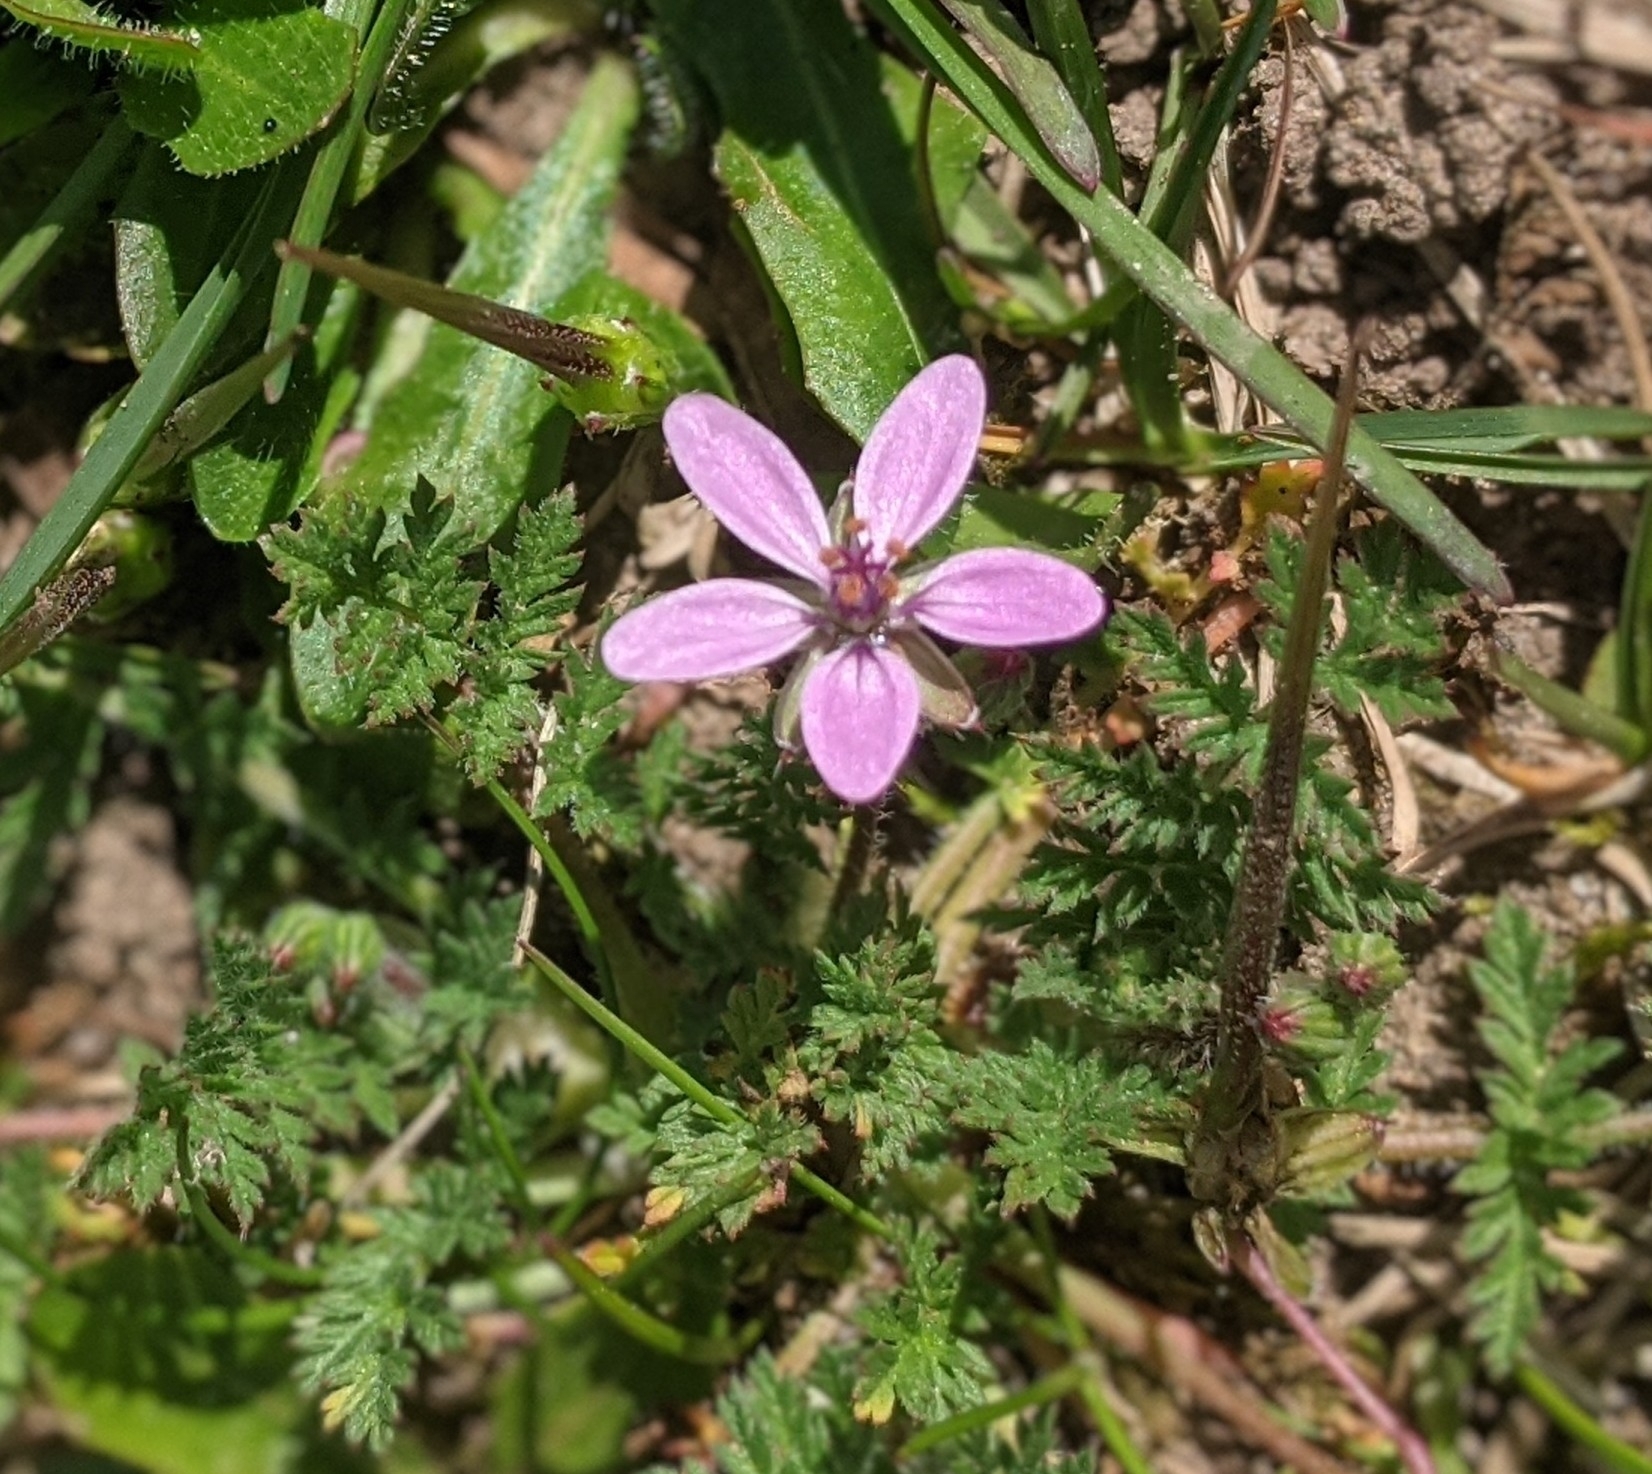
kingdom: Plantae
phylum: Tracheophyta
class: Magnoliopsida
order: Geraniales
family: Geraniaceae
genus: Erodium
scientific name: Erodium cicutarium
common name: Common stork's-bill
